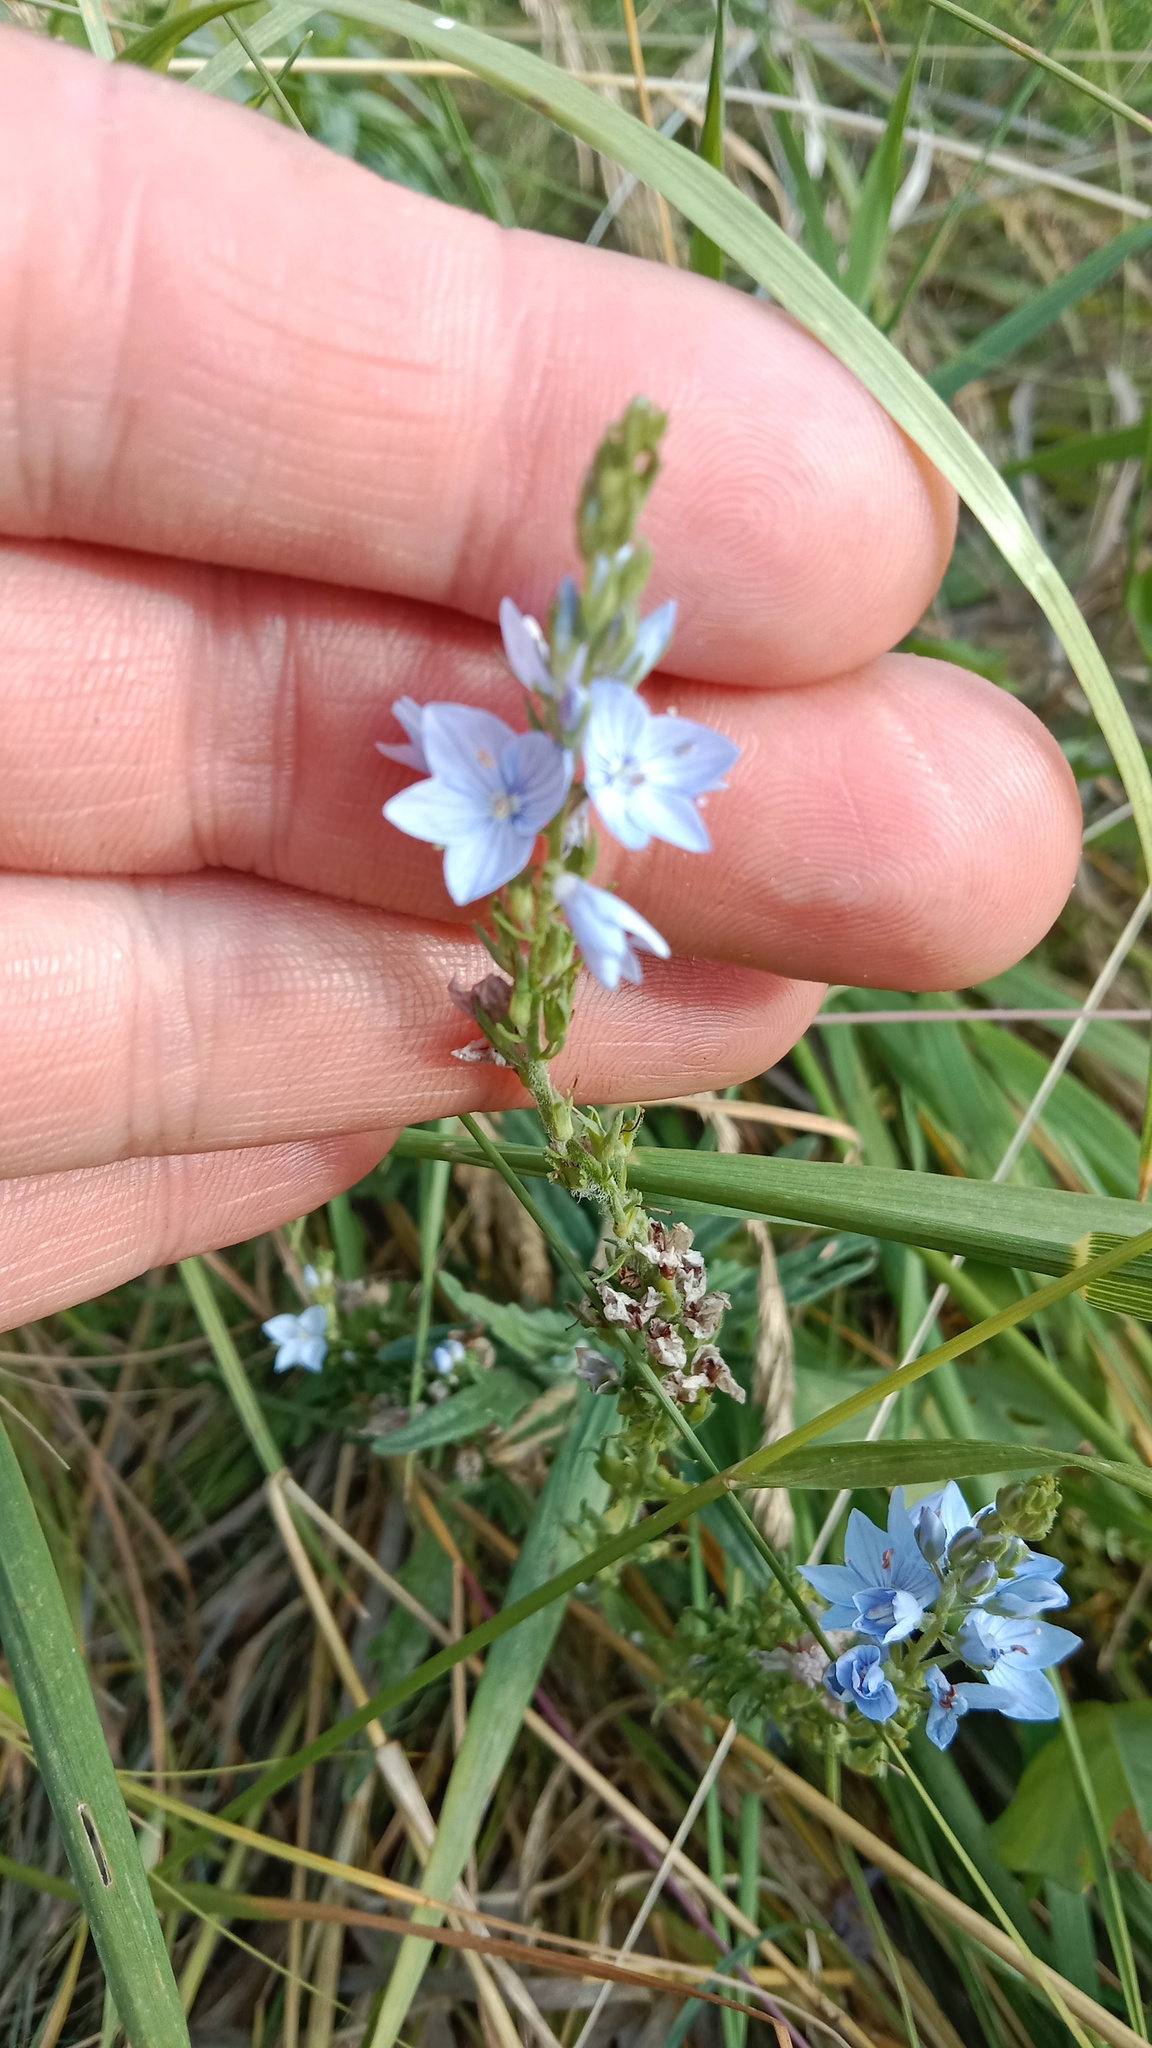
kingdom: Plantae
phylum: Tracheophyta
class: Magnoliopsida
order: Lamiales
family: Plantaginaceae
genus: Veronica
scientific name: Veronica prostrata
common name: Prostrate speedwell
